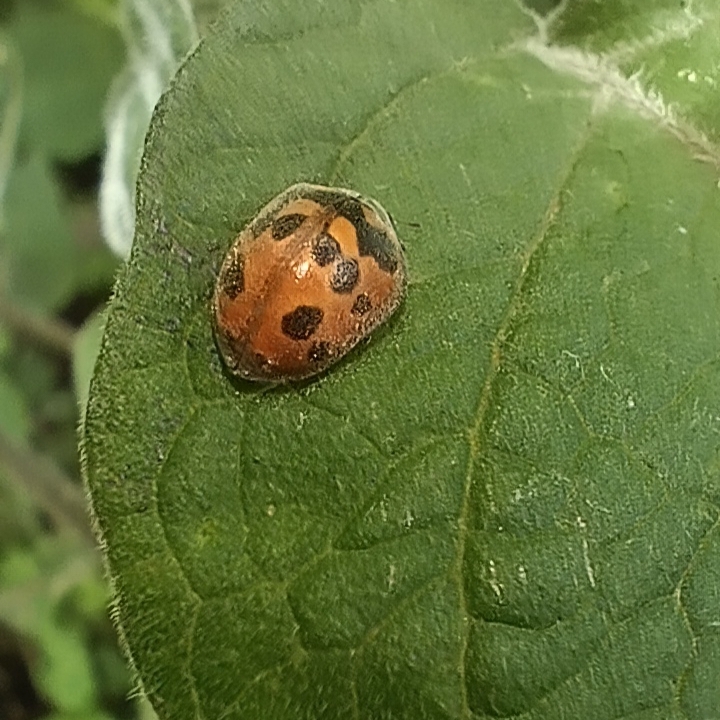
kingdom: Animalia
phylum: Arthropoda
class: Insecta
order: Coleoptera
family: Coccinellidae
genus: Chnootriba
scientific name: Chnootriba
